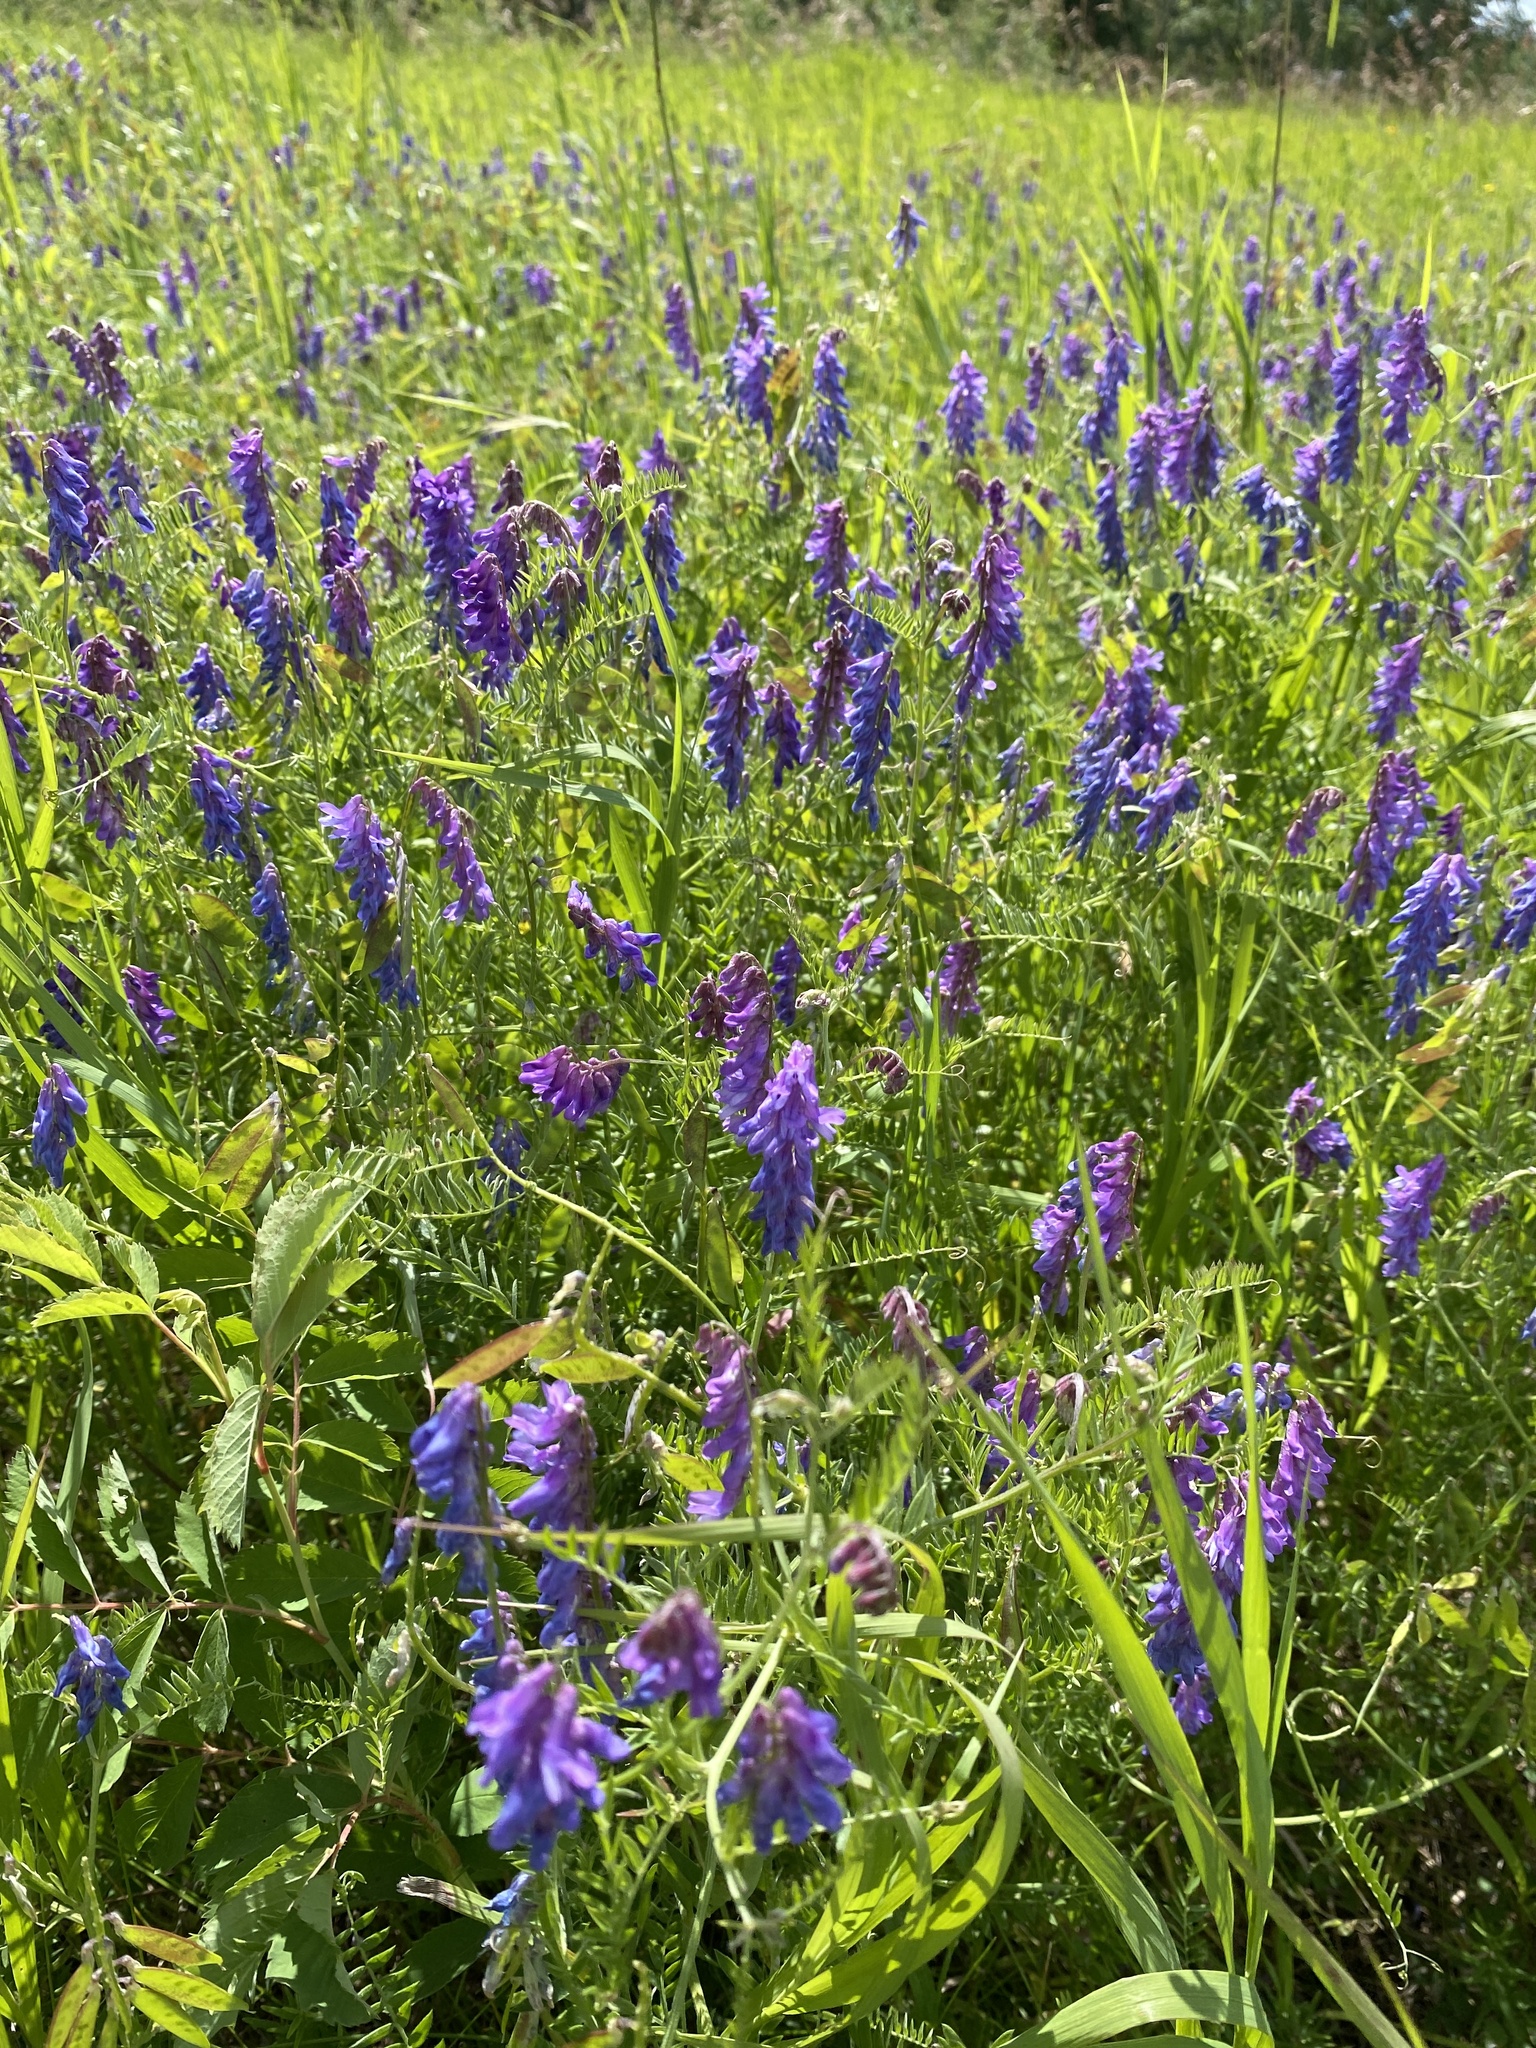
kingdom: Plantae
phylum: Tracheophyta
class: Magnoliopsida
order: Fabales
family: Fabaceae
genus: Vicia
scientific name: Vicia cracca
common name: Bird vetch
